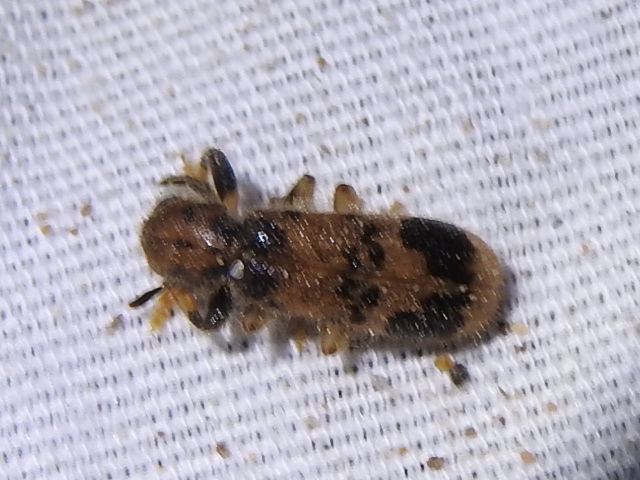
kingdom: Animalia
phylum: Arthropoda
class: Insecta
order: Coleoptera
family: Cleridae
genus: Pelonium
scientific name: Pelonium maculicolle
